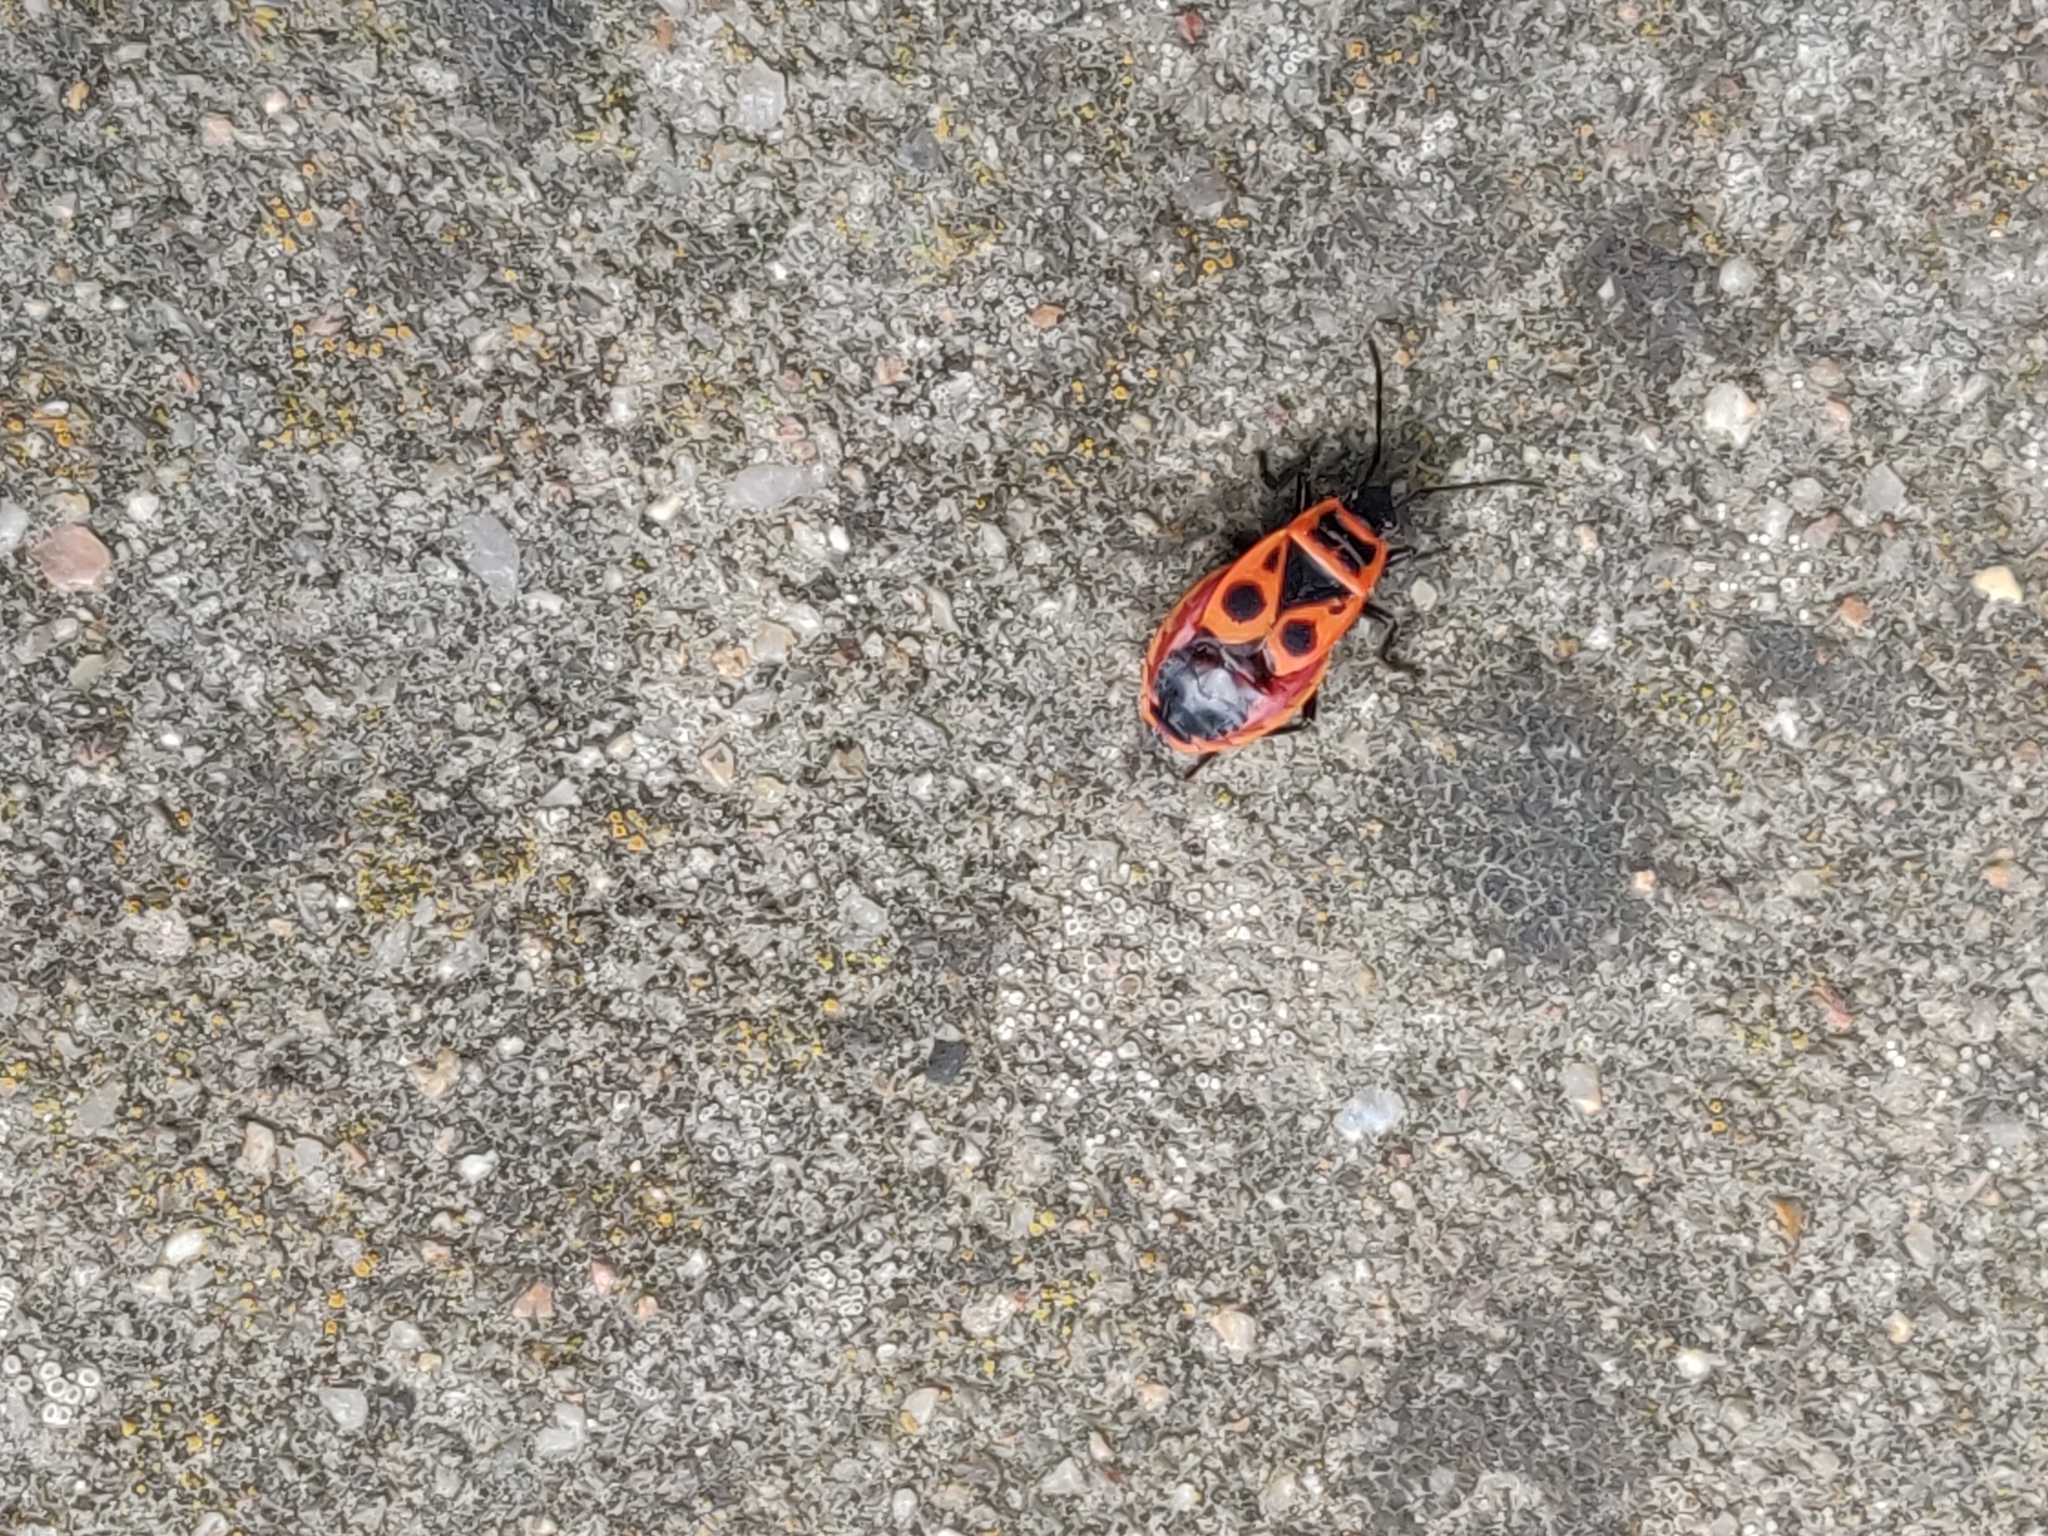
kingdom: Animalia
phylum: Arthropoda
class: Insecta
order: Hemiptera
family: Pyrrhocoridae
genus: Pyrrhocoris
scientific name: Pyrrhocoris apterus
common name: Firebug
